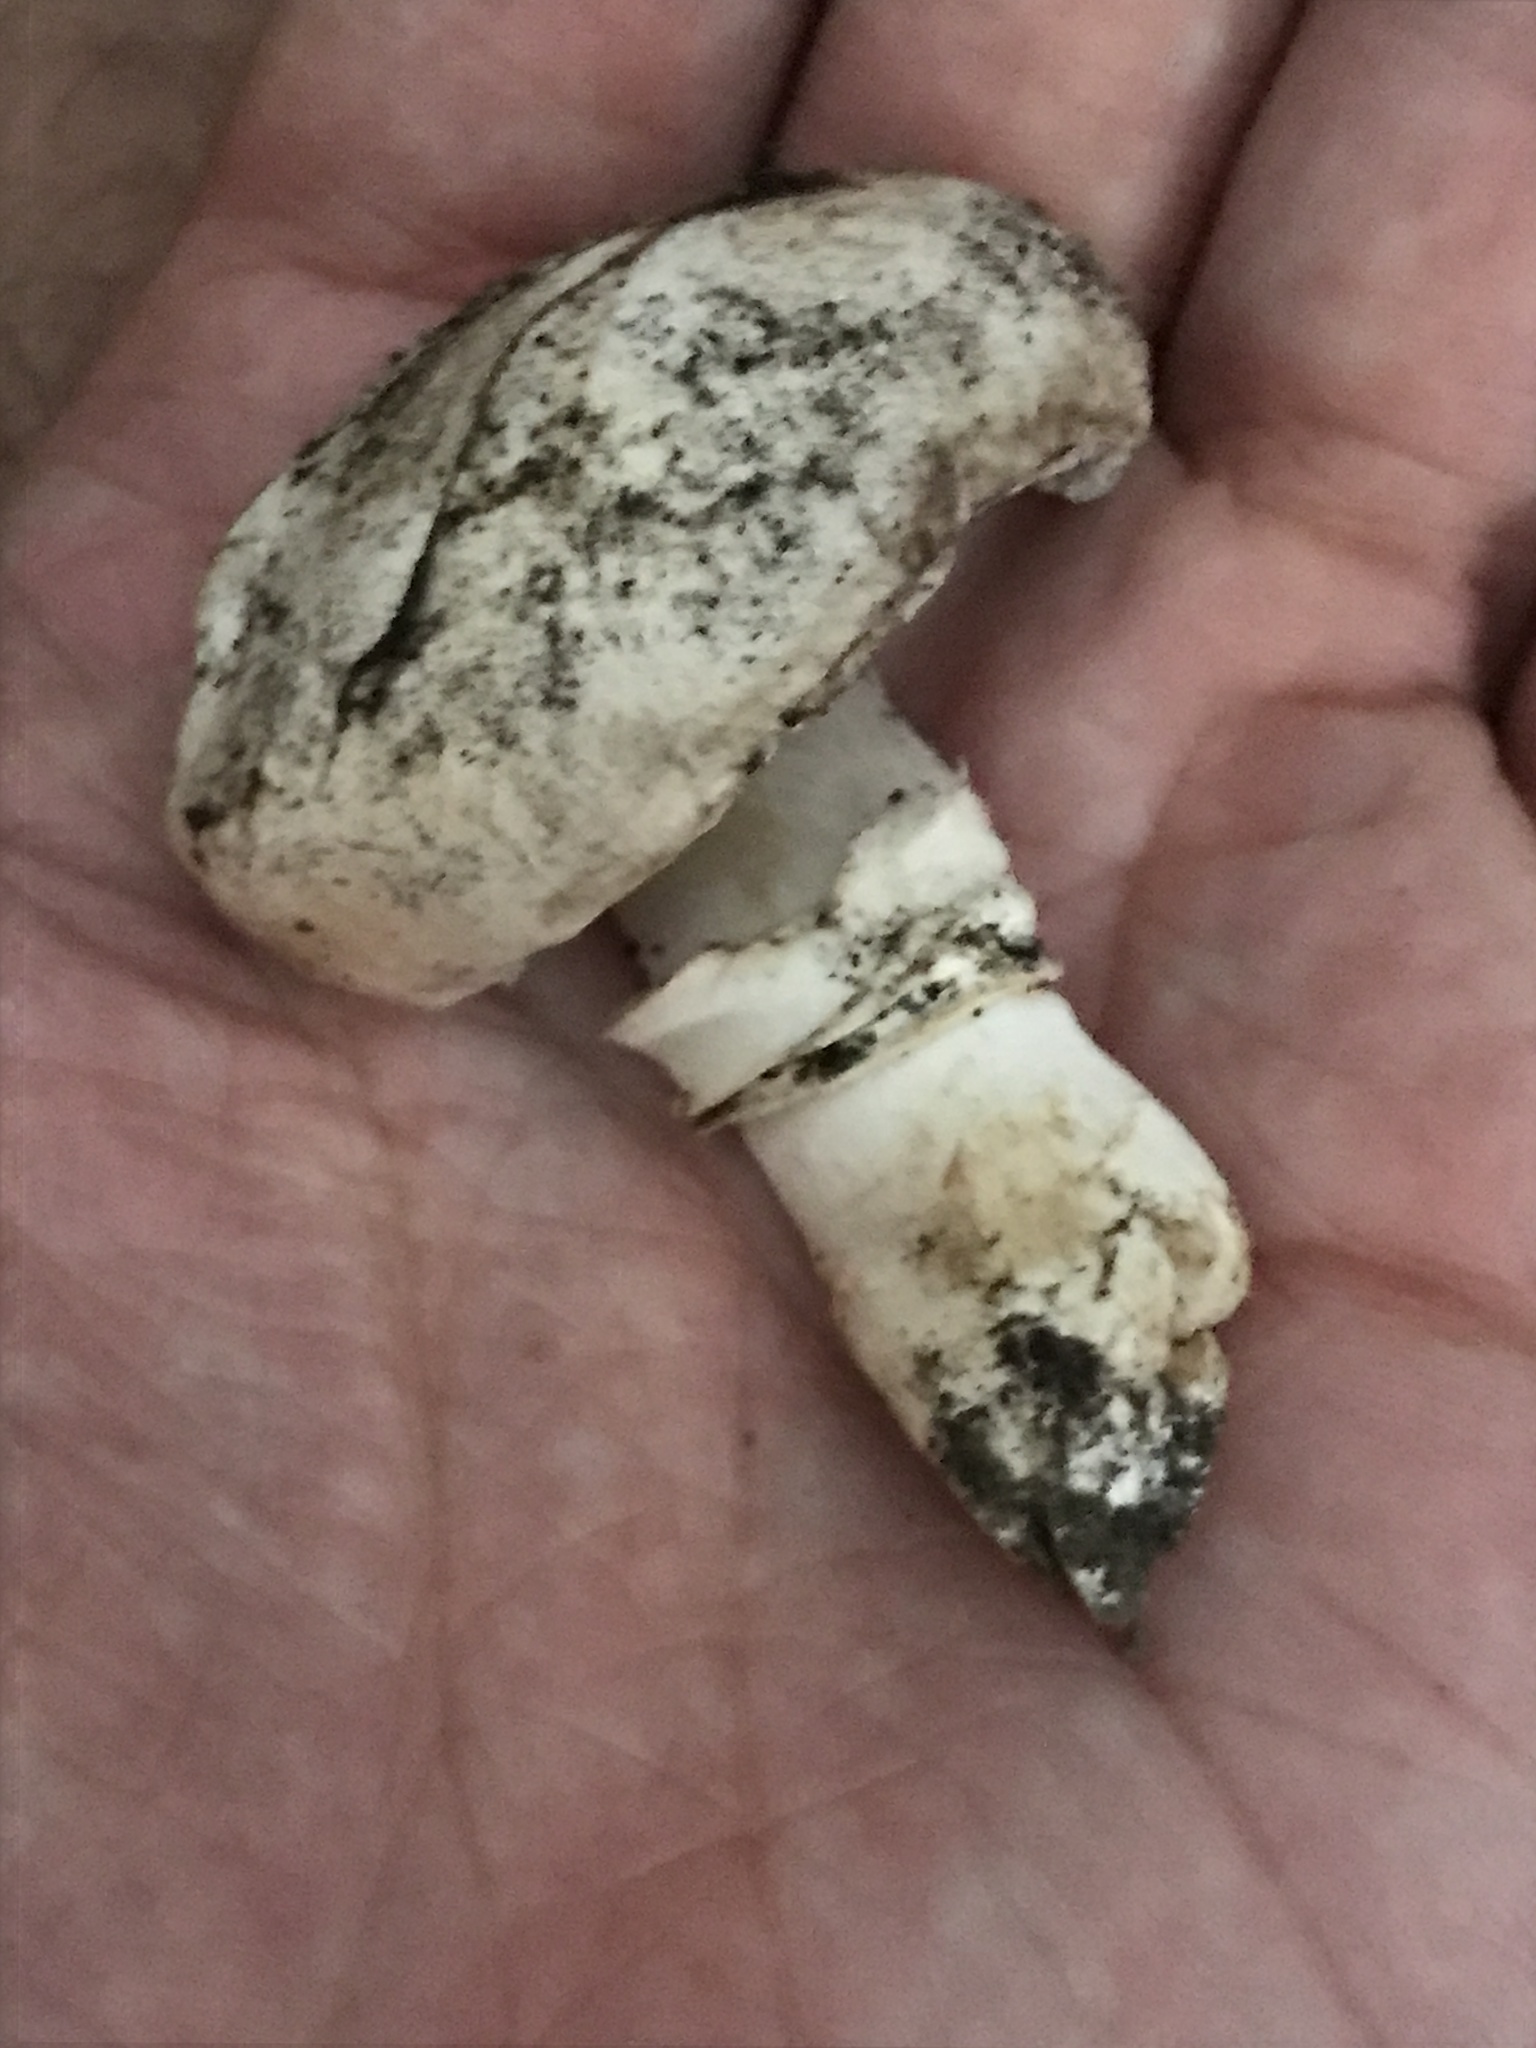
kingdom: Fungi
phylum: Basidiomycota
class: Agaricomycetes
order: Agaricales
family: Agaricaceae
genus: Agaricus
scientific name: Agaricus bitorquis
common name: Pavement mushroom
